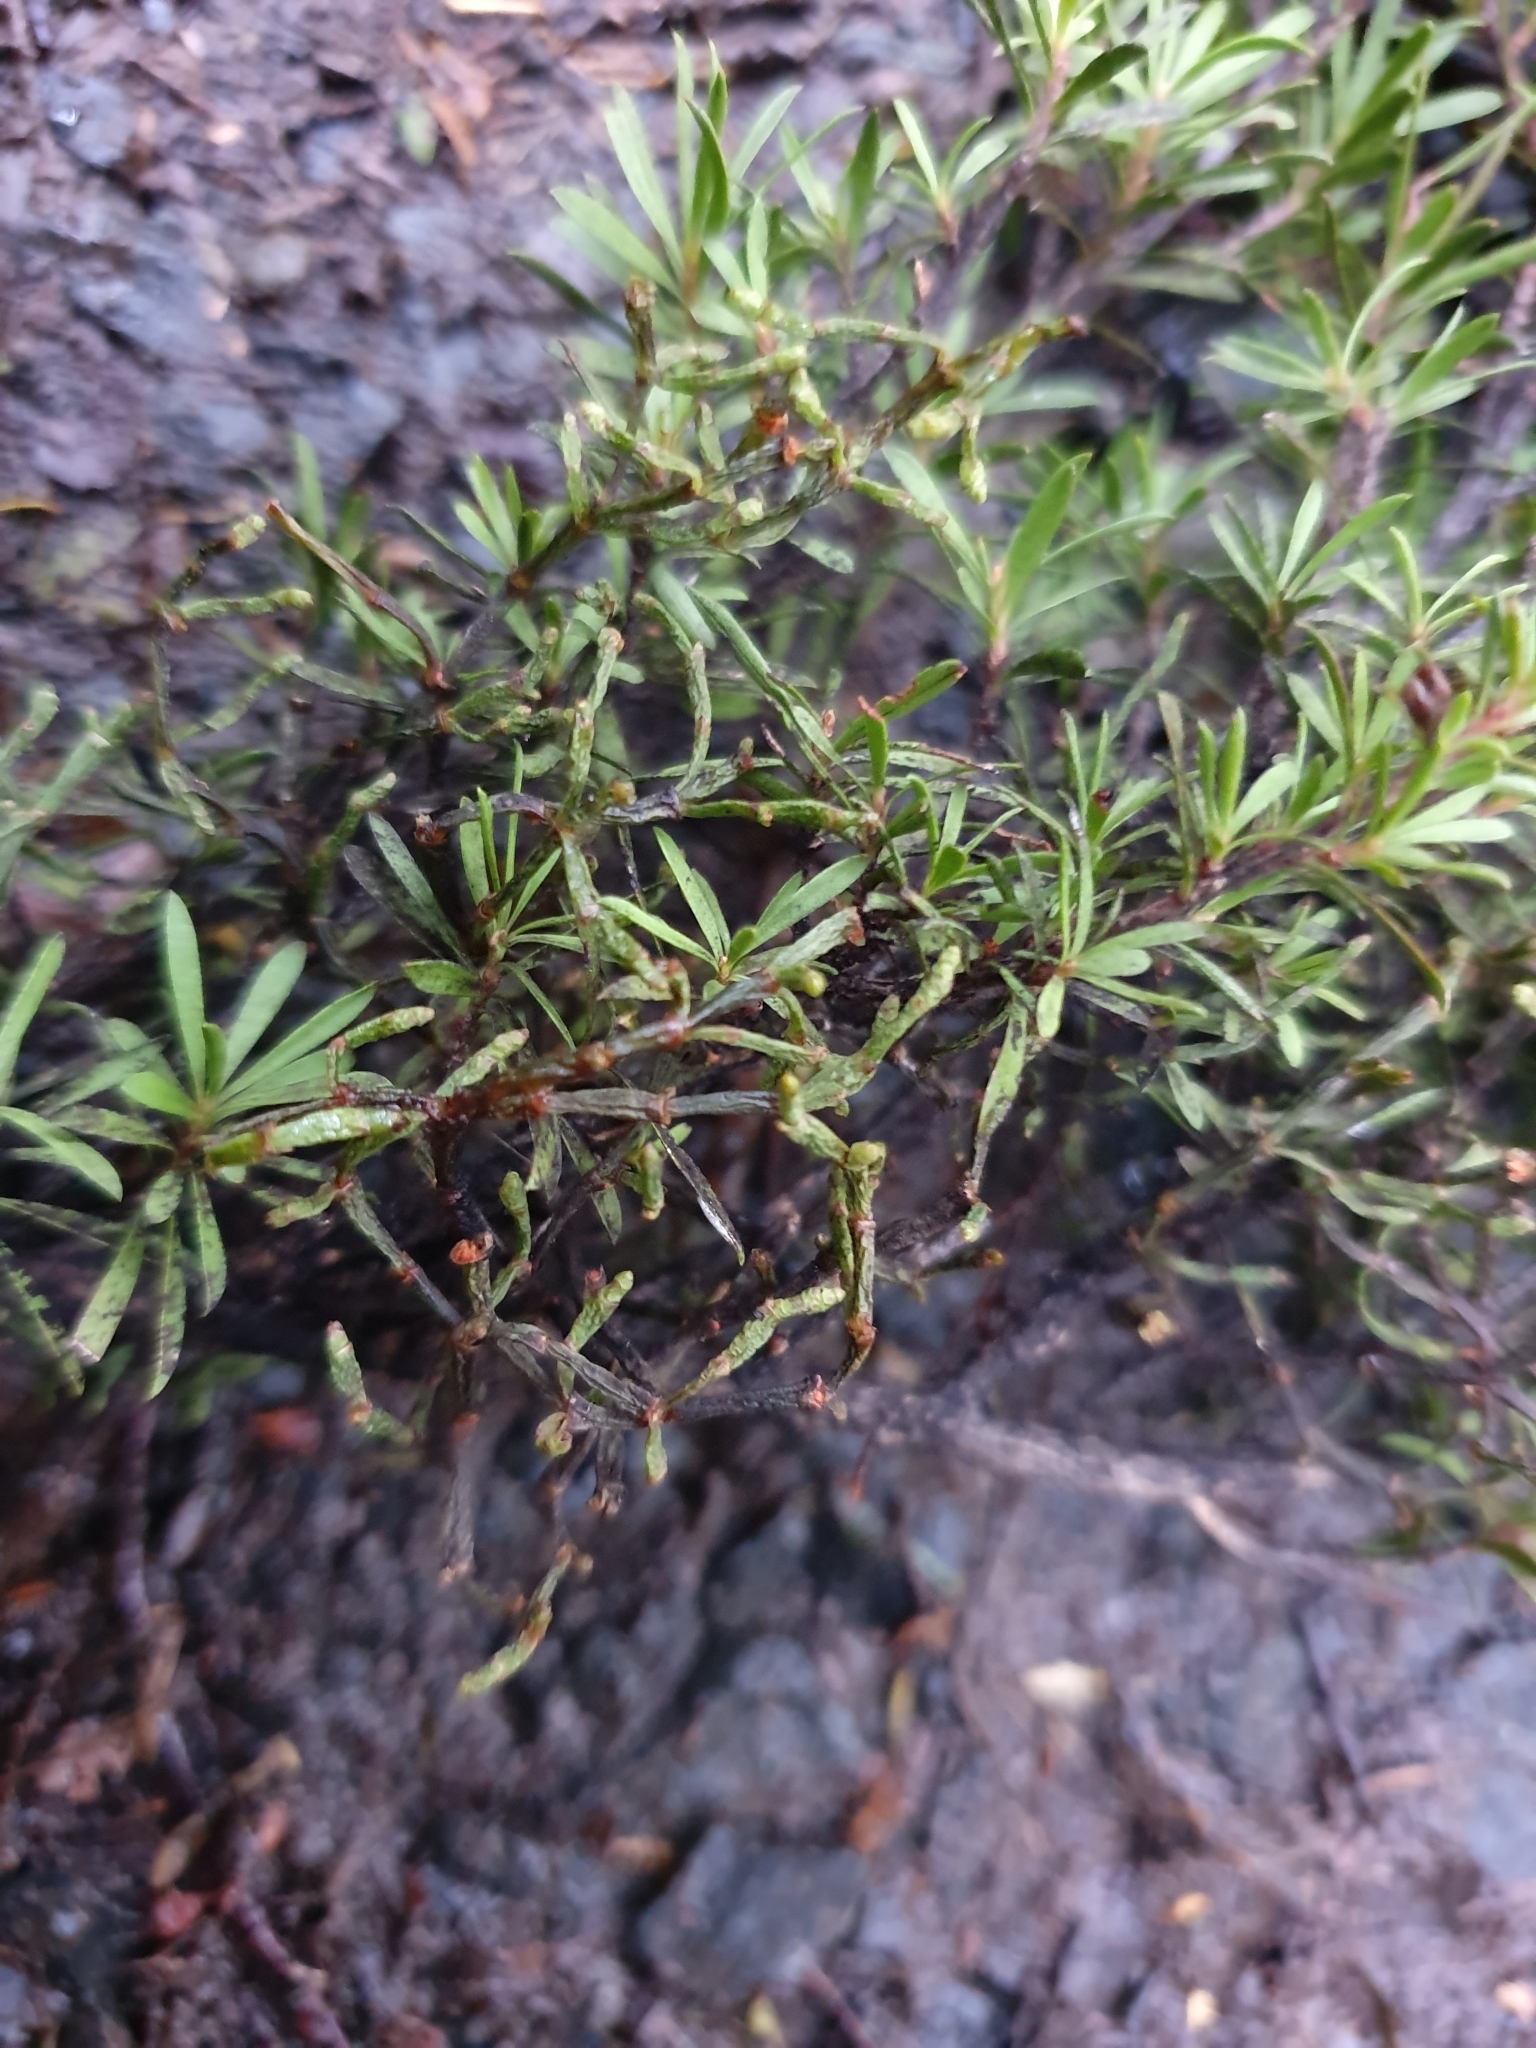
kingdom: Plantae
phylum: Tracheophyta
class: Magnoliopsida
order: Santalales
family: Viscaceae
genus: Korthalsella
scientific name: Korthalsella salicornioides
